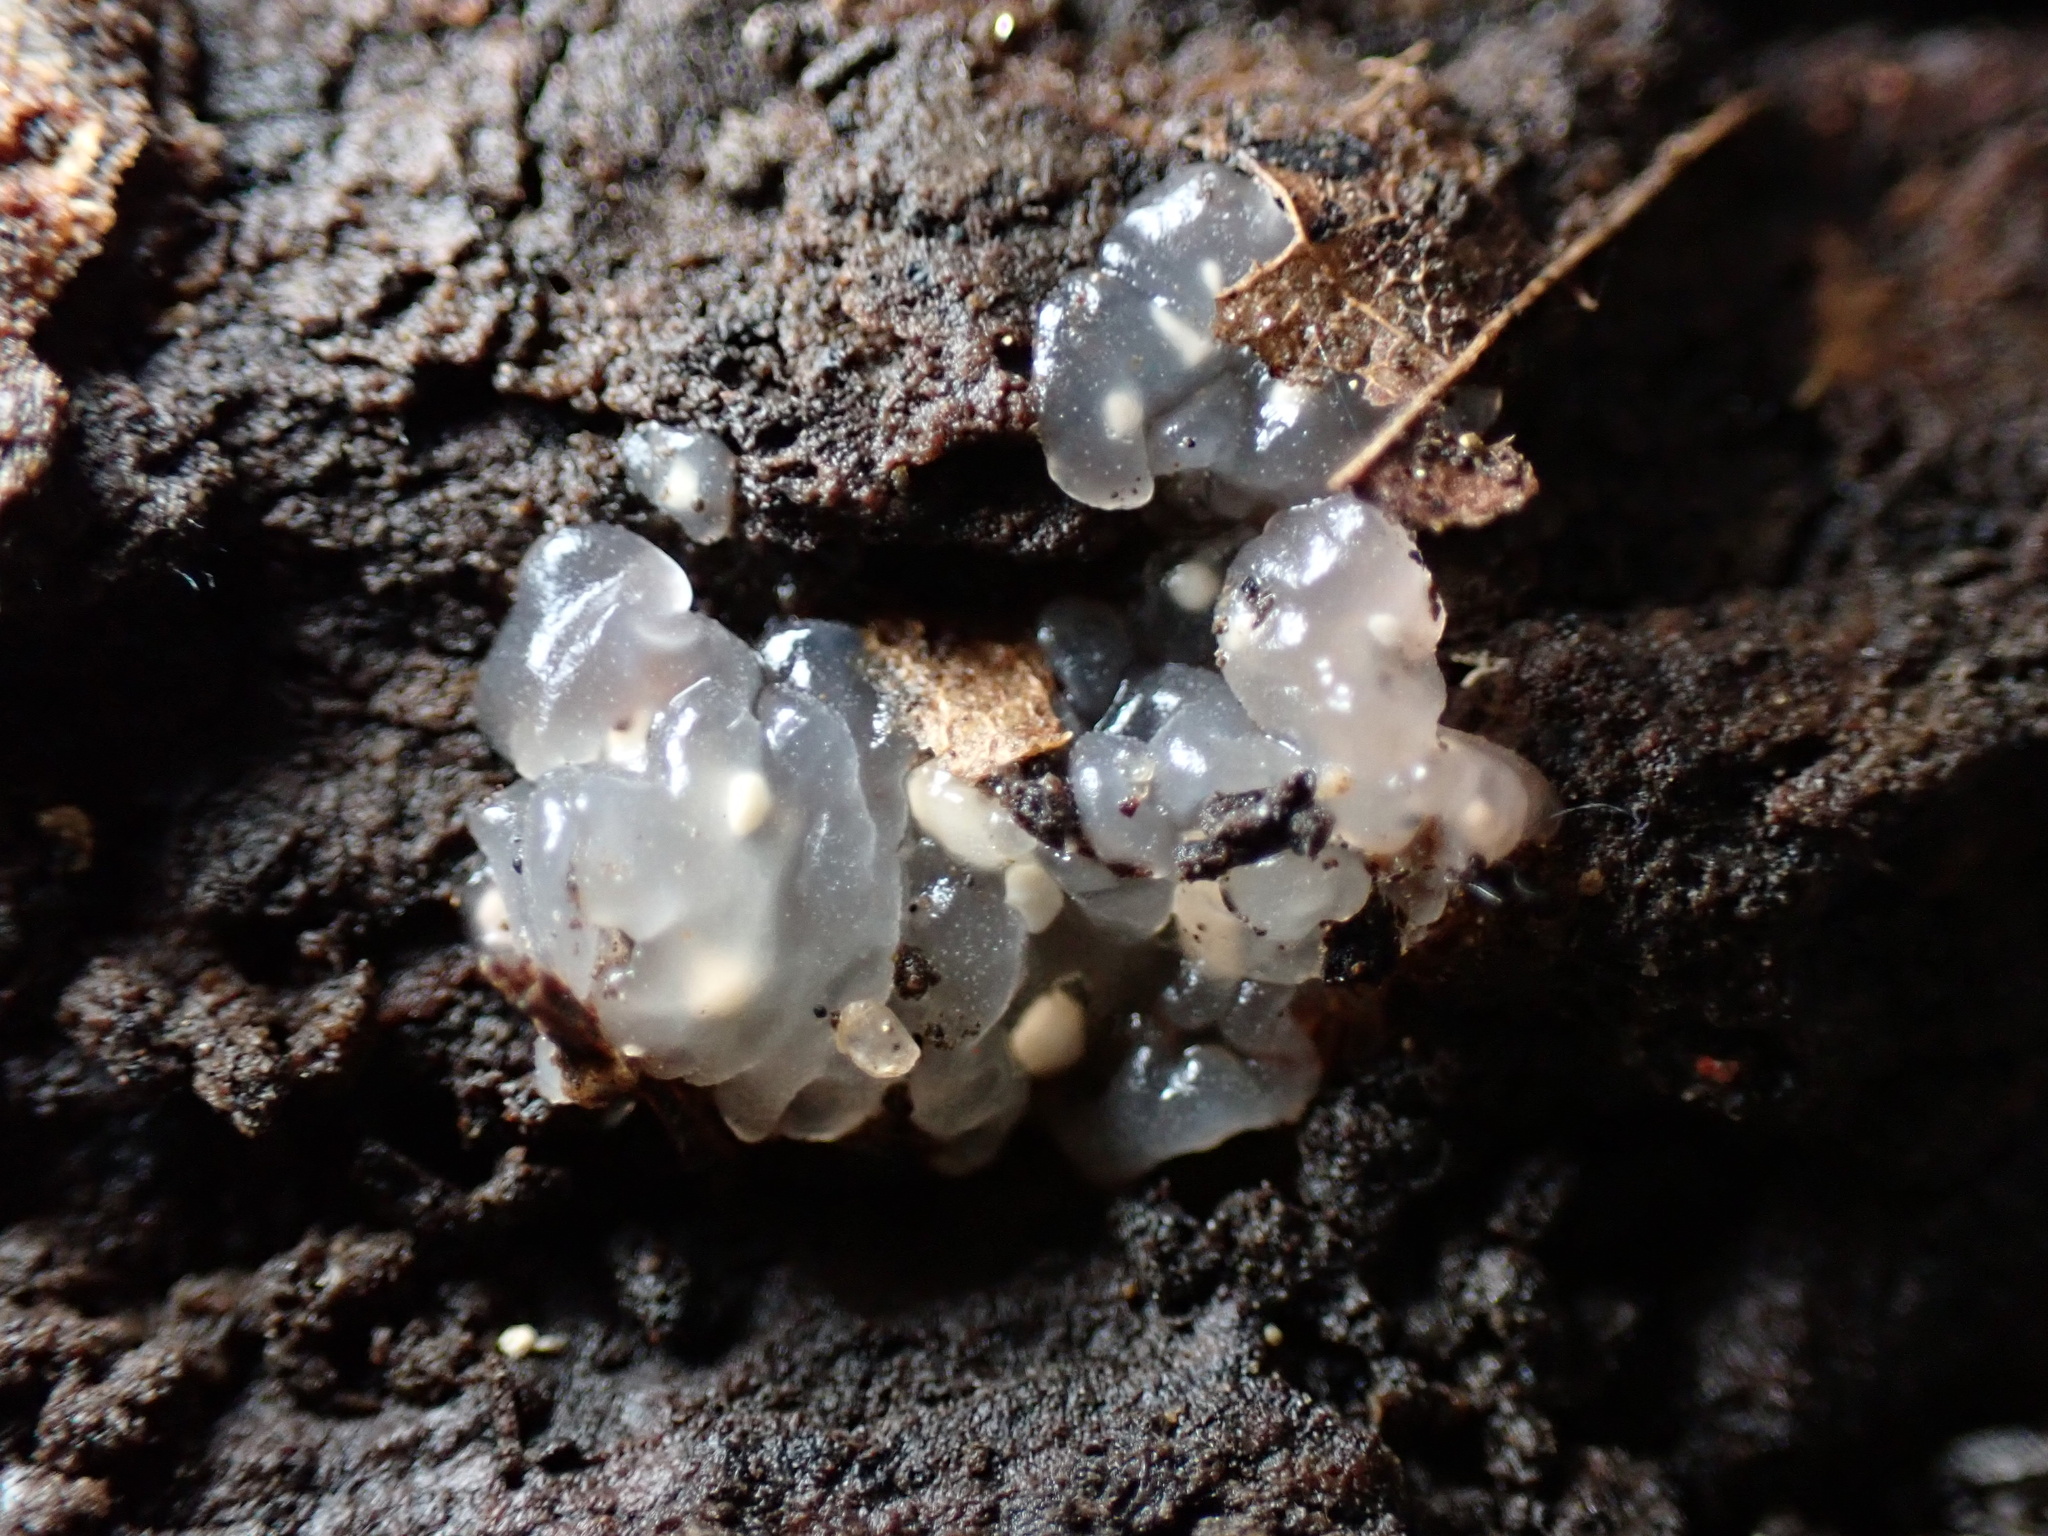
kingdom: Fungi
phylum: Basidiomycota
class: Agaricomycetes
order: Auriculariales
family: Hyaloriaceae
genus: Myxarium
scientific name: Myxarium nucleatum
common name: Crystal brain fungus
